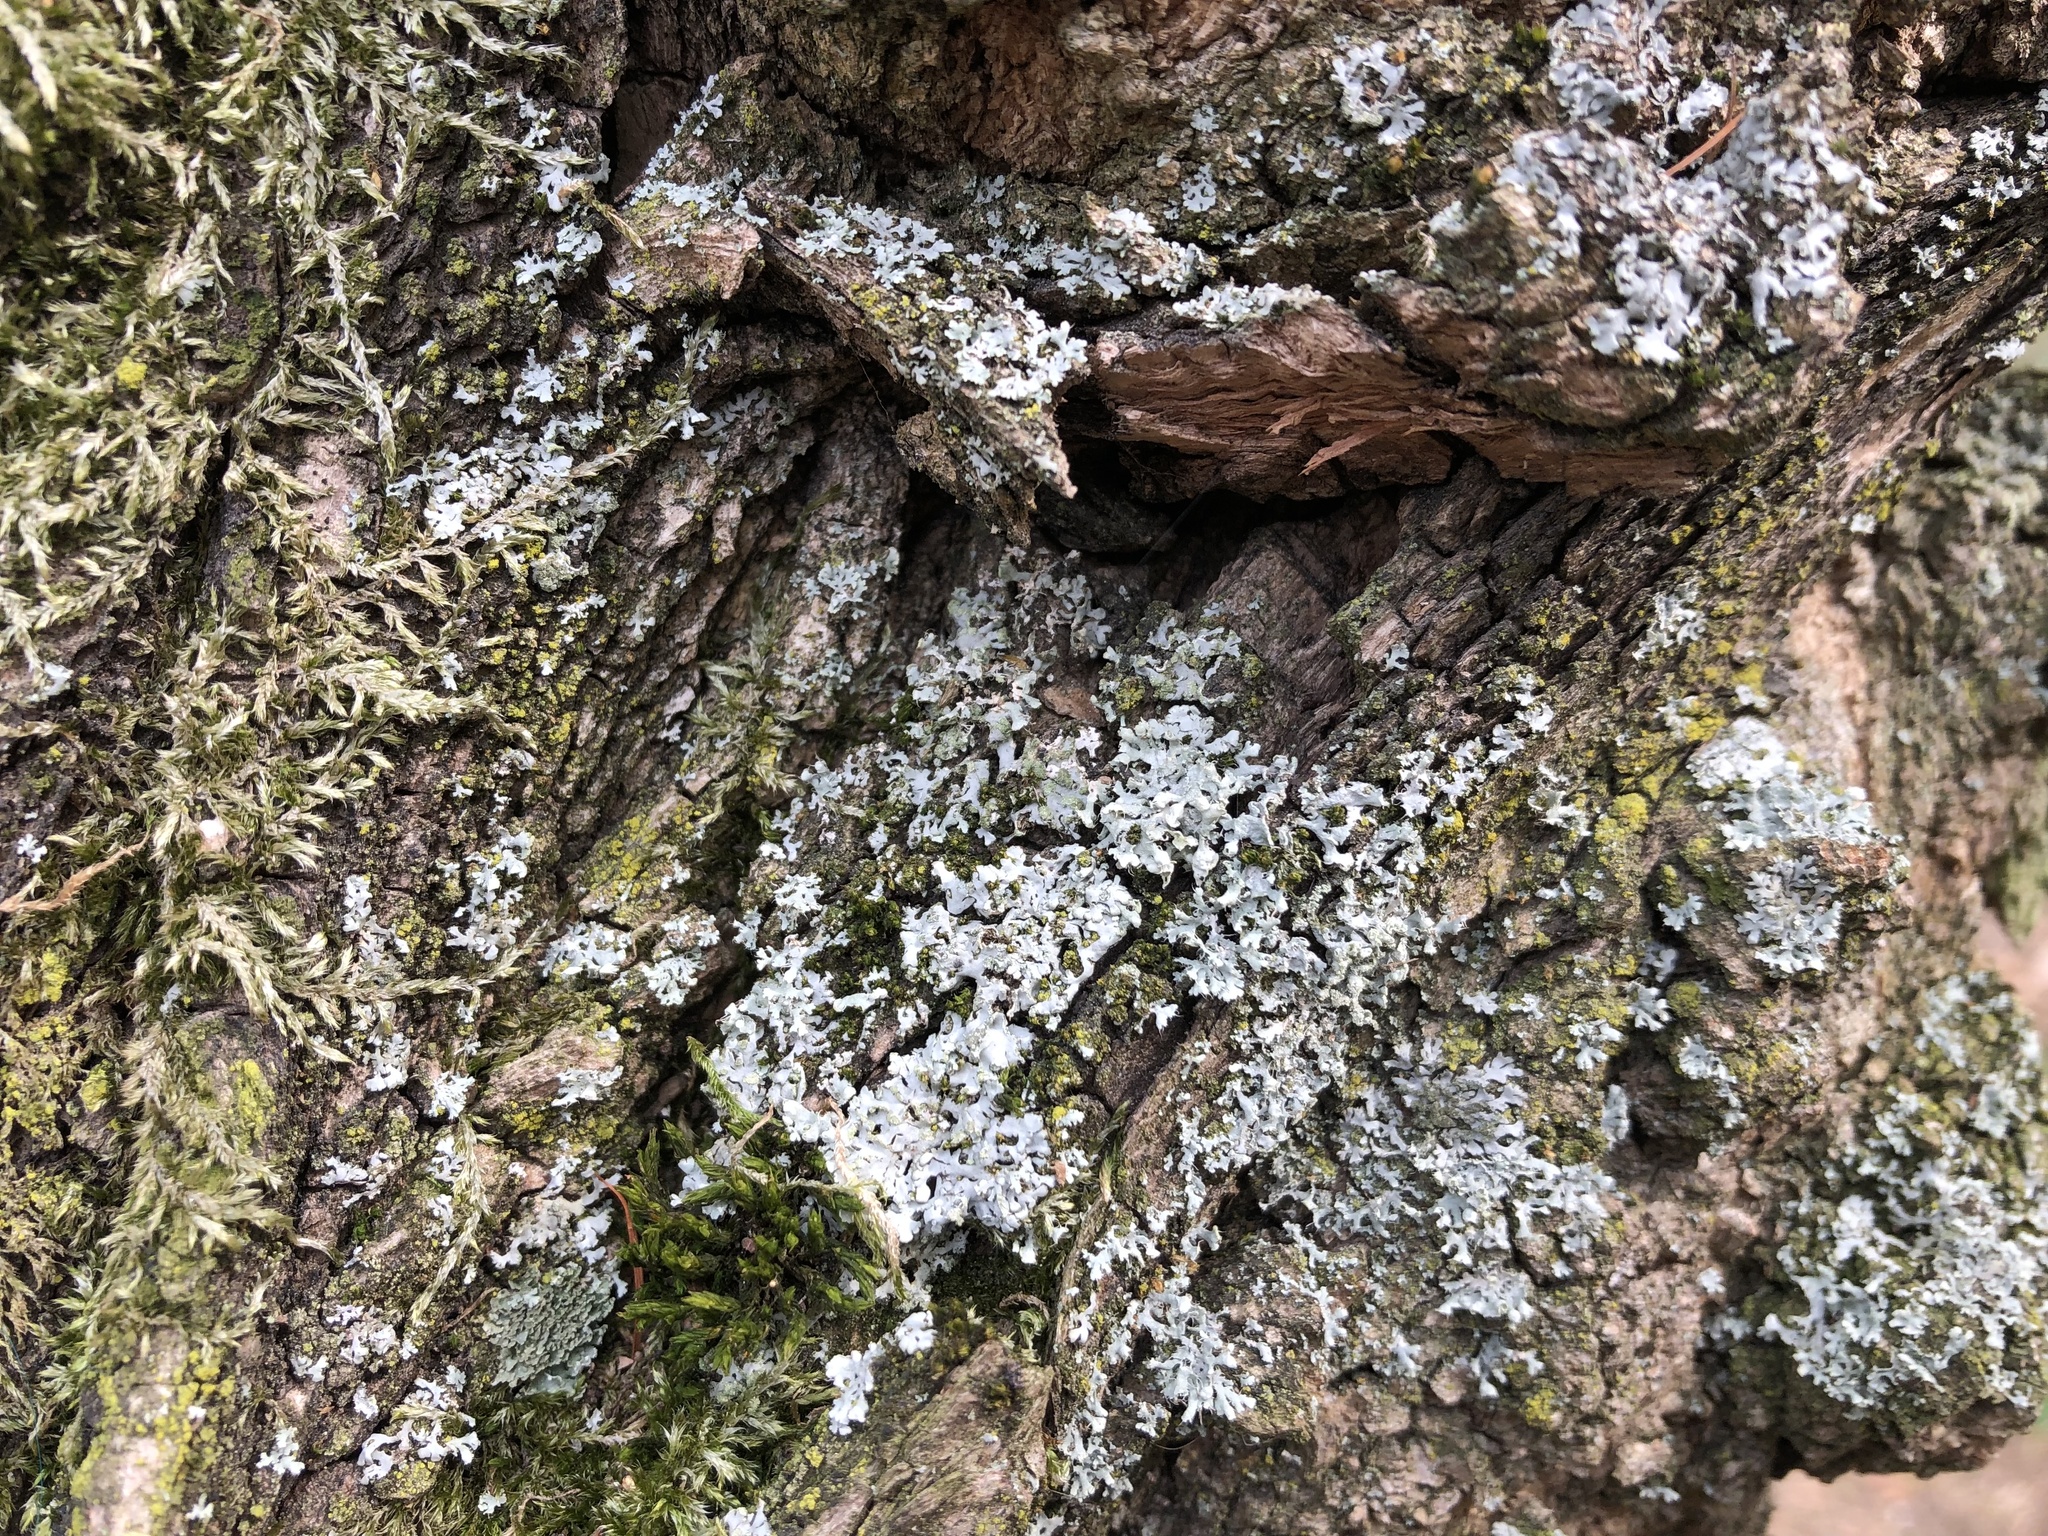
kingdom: Fungi
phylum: Ascomycota
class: Lecanoromycetes
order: Caliciales
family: Physciaceae
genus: Physcia
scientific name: Physcia adscendens
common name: Hooded rosette lichen
